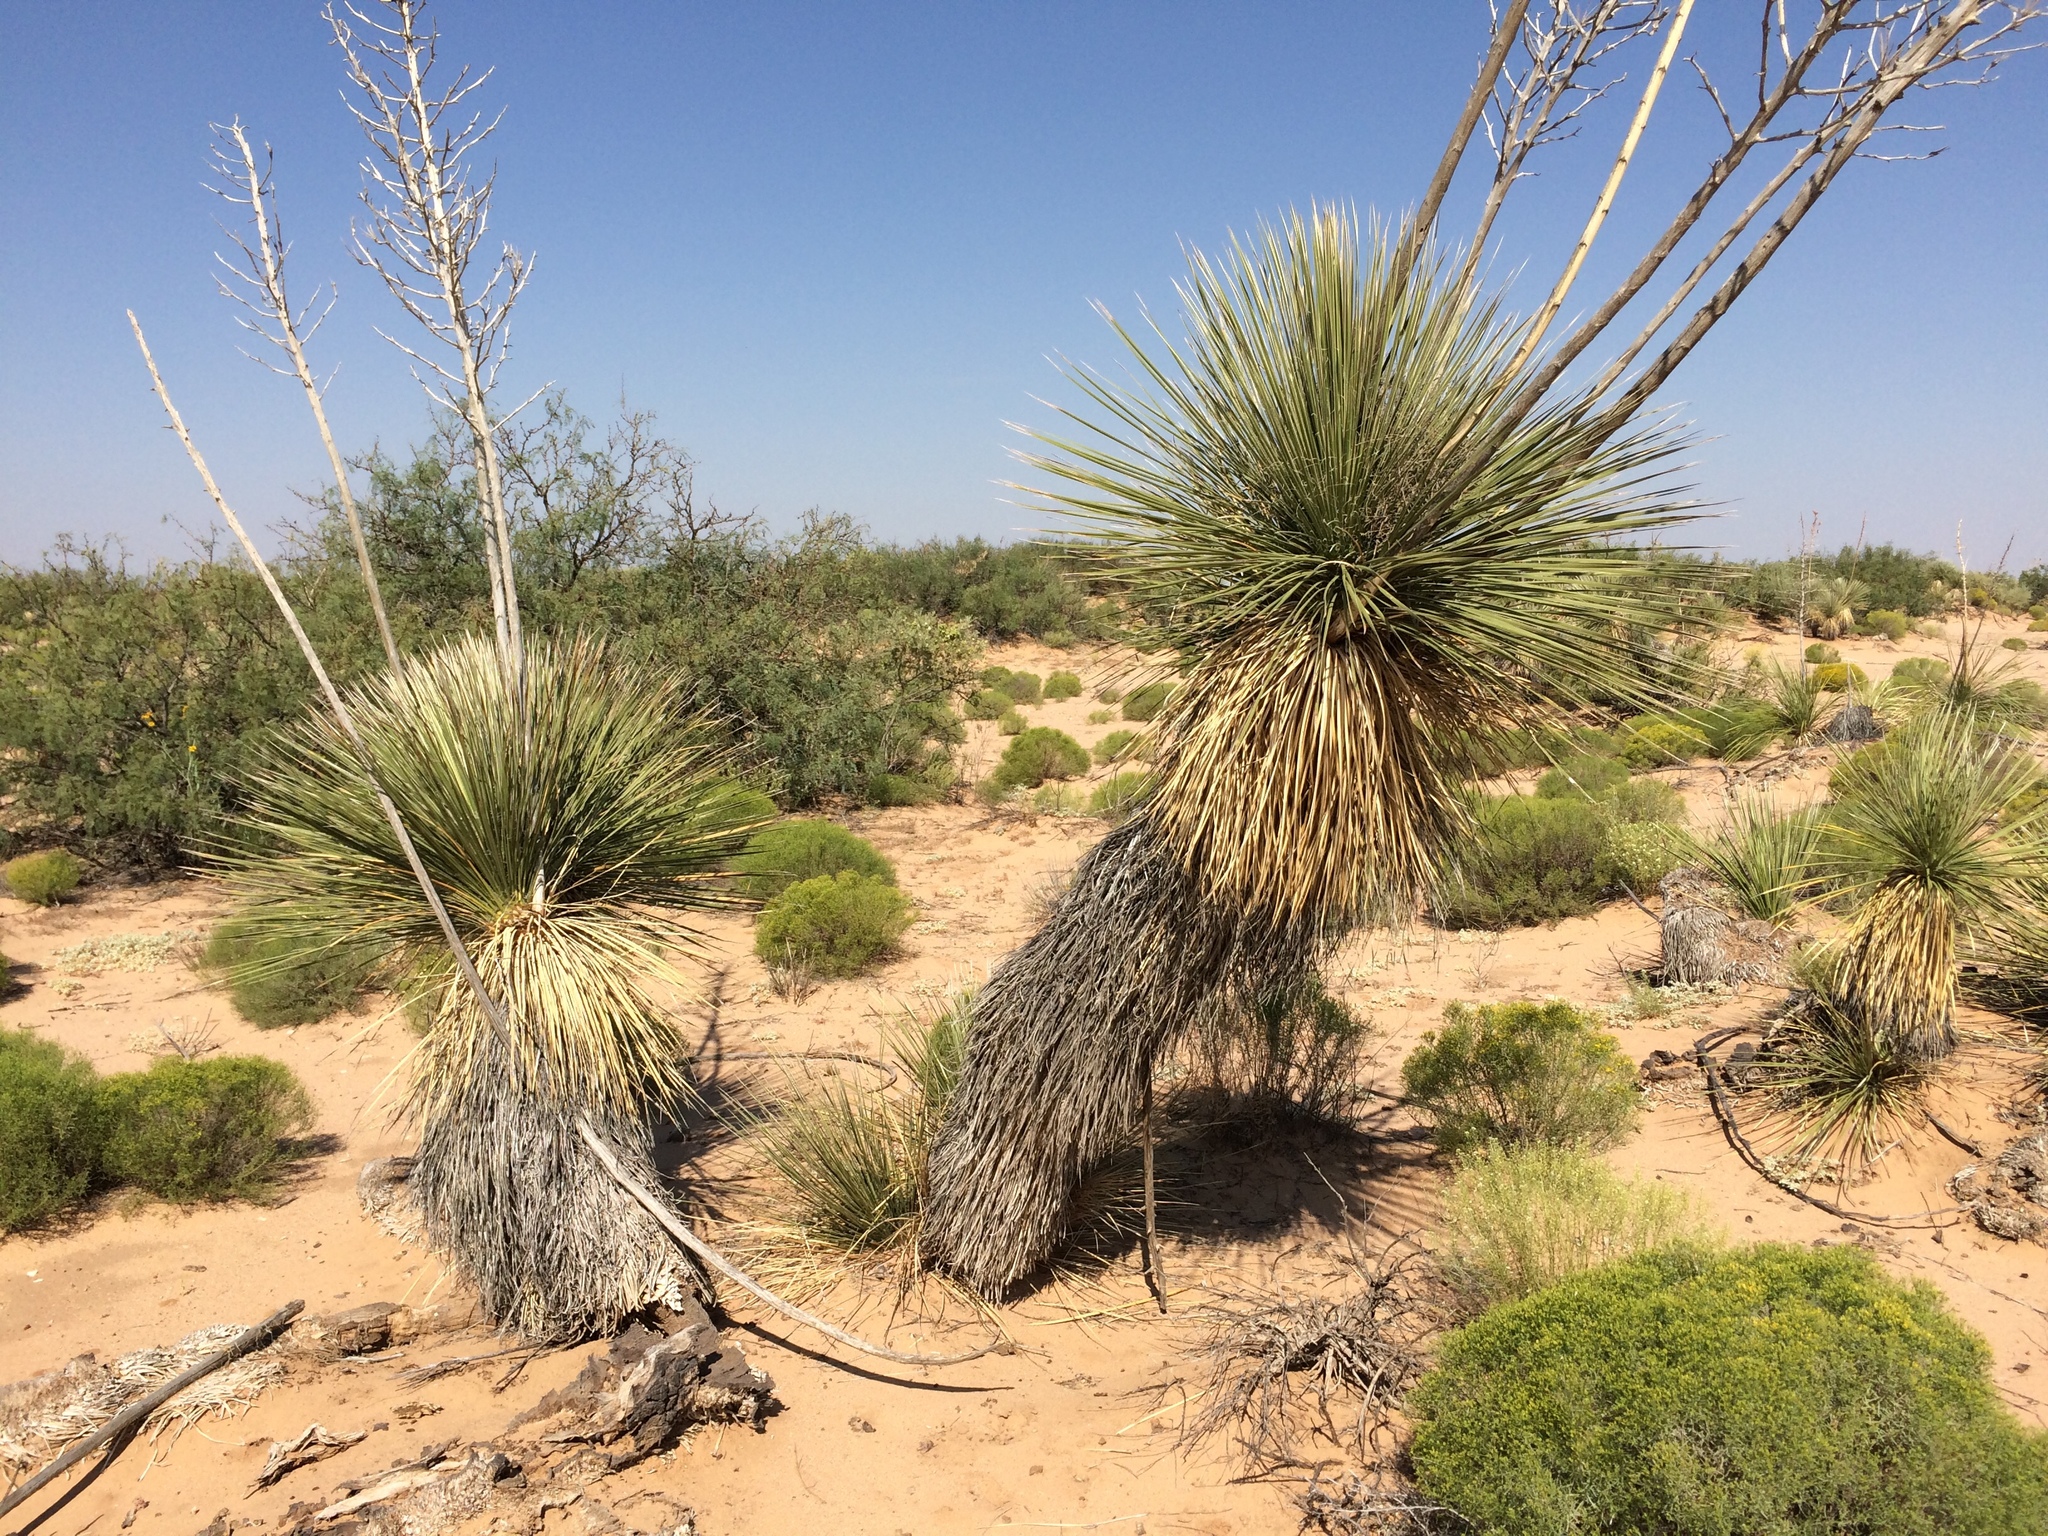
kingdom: Plantae
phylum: Tracheophyta
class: Liliopsida
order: Asparagales
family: Asparagaceae
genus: Yucca
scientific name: Yucca elata
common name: Palmella
